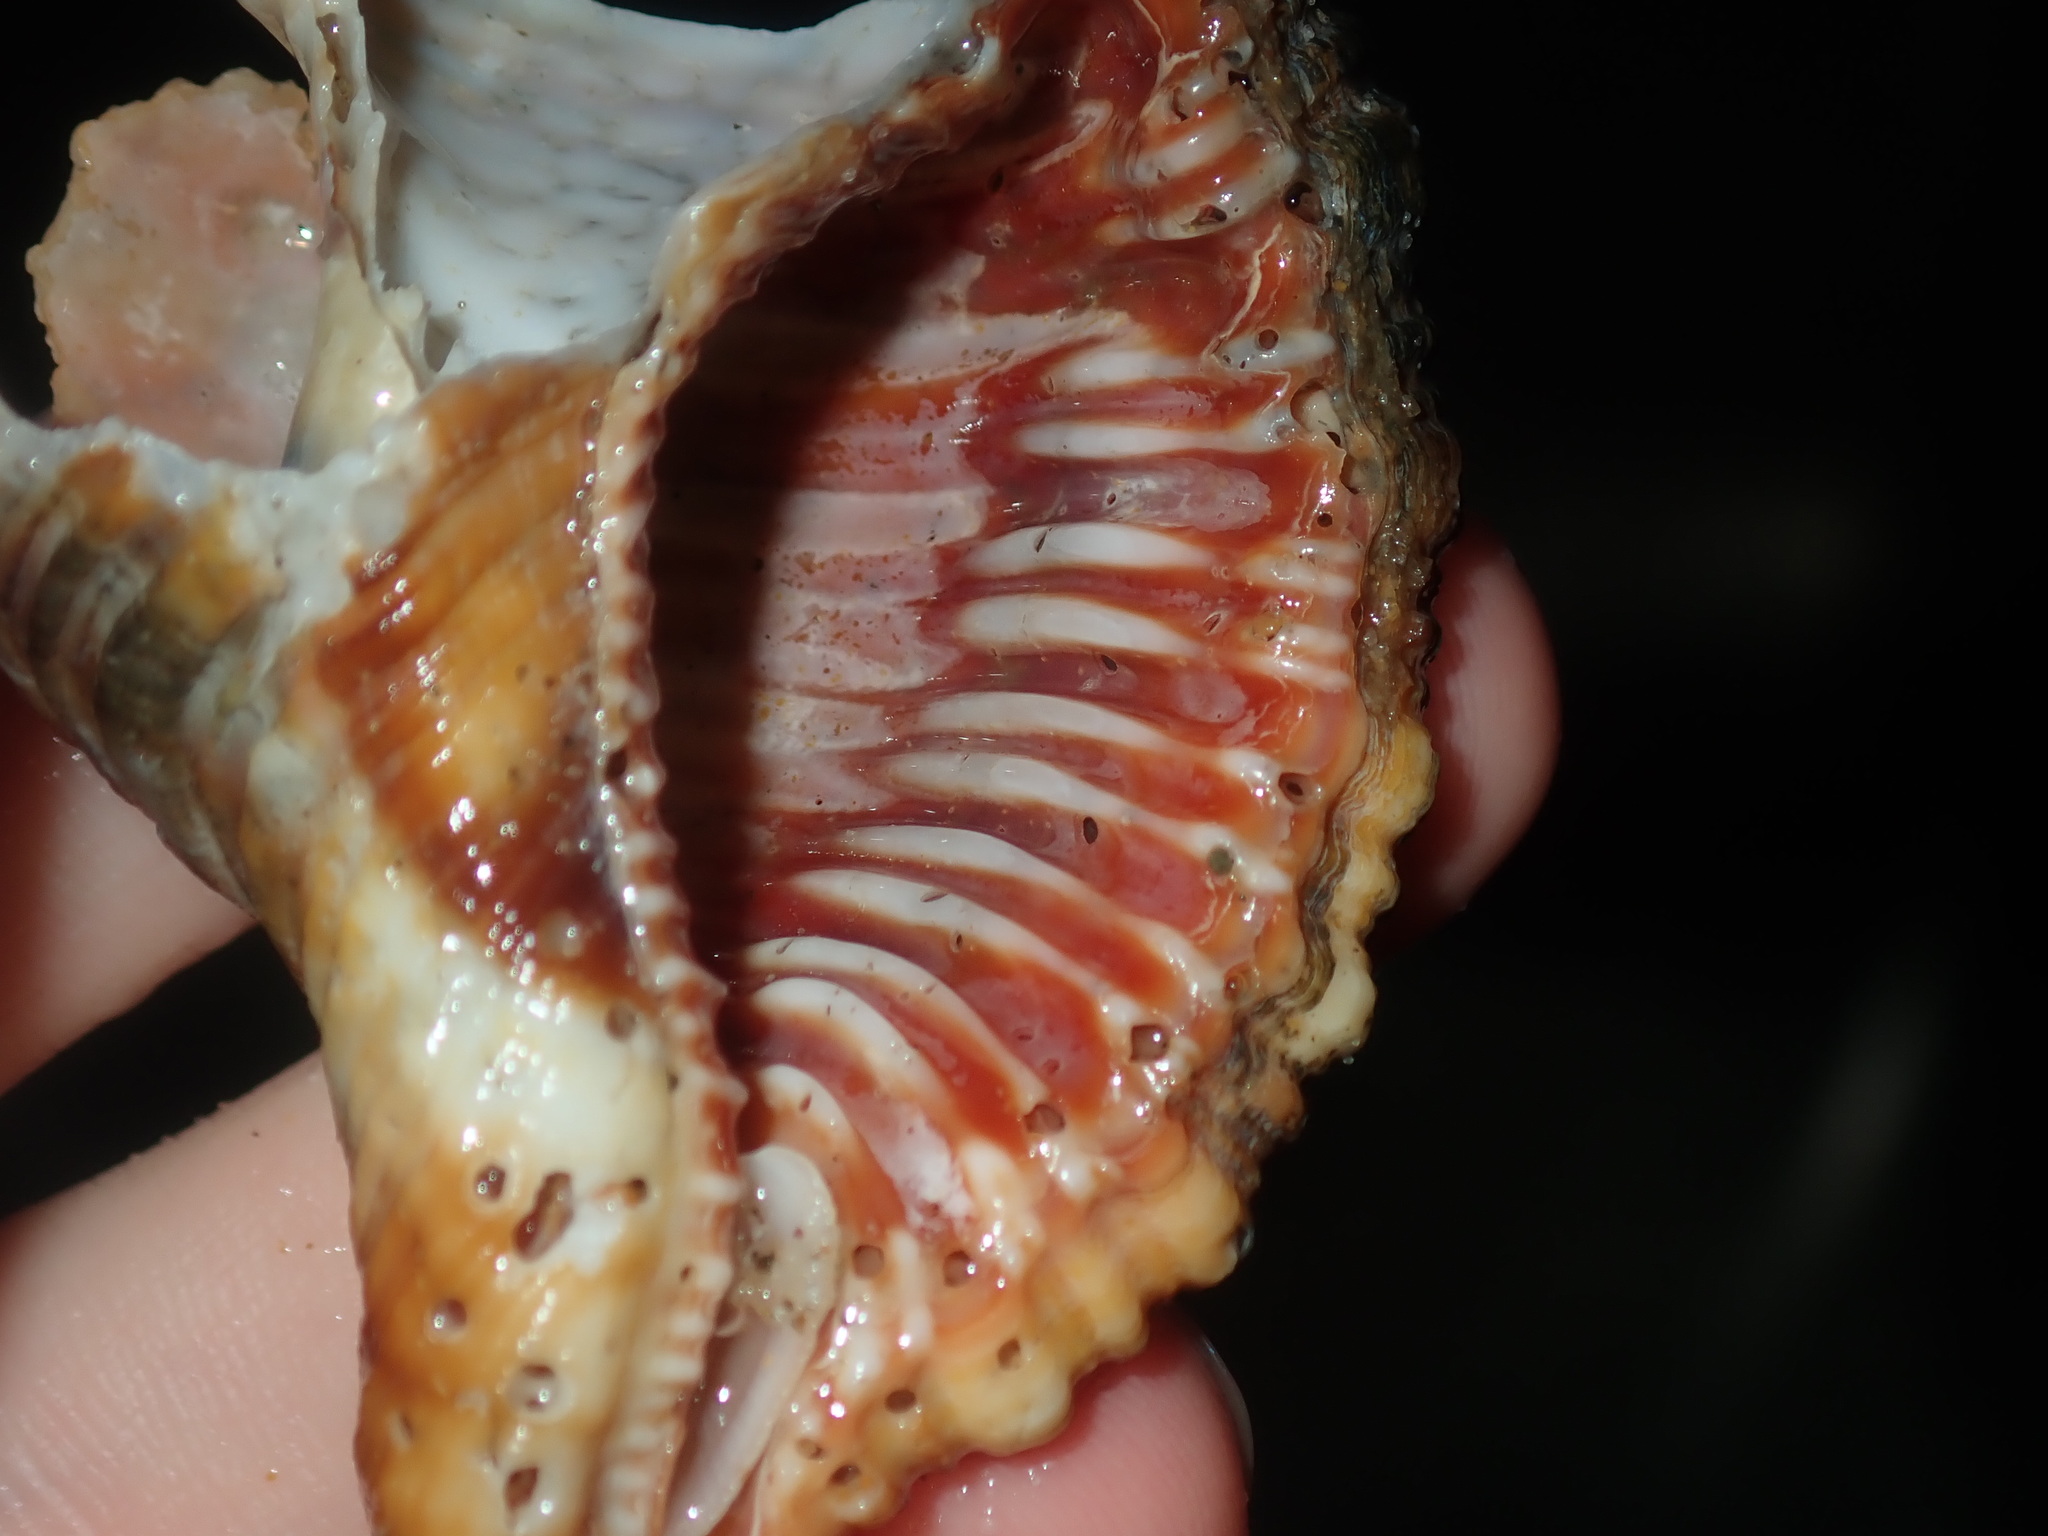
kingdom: Animalia
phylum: Mollusca
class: Gastropoda
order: Littorinimorpha
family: Cymatiidae
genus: Monoplex
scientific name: Monoplex pilearis
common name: Hairy triton
